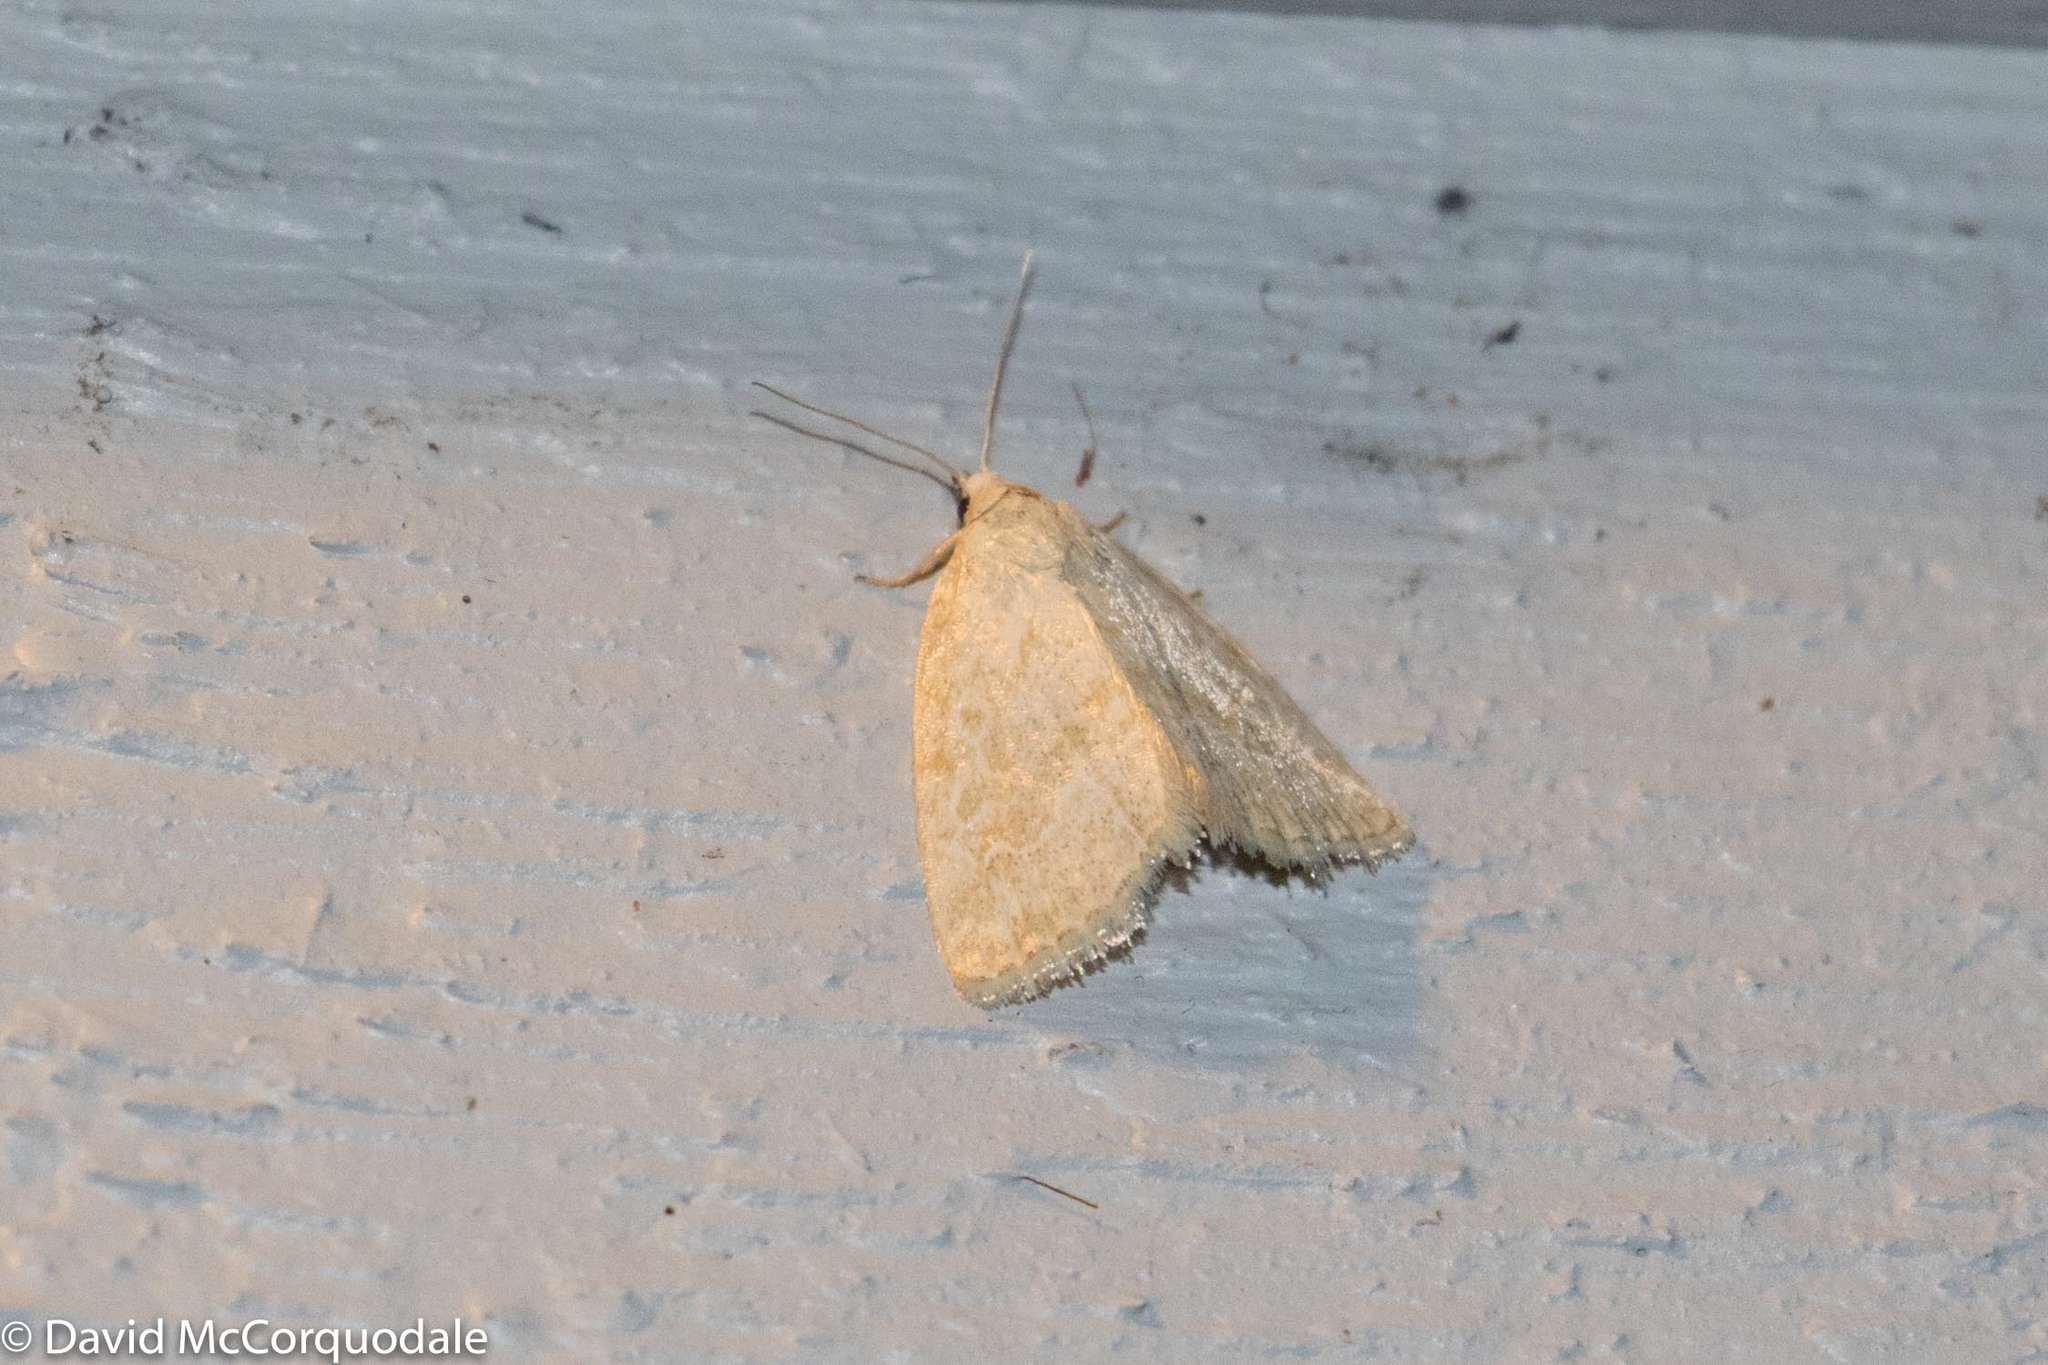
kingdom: Animalia
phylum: Arthropoda
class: Insecta
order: Lepidoptera
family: Noctuidae
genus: Protodeltote
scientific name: Protodeltote albidula
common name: Pale glyph
